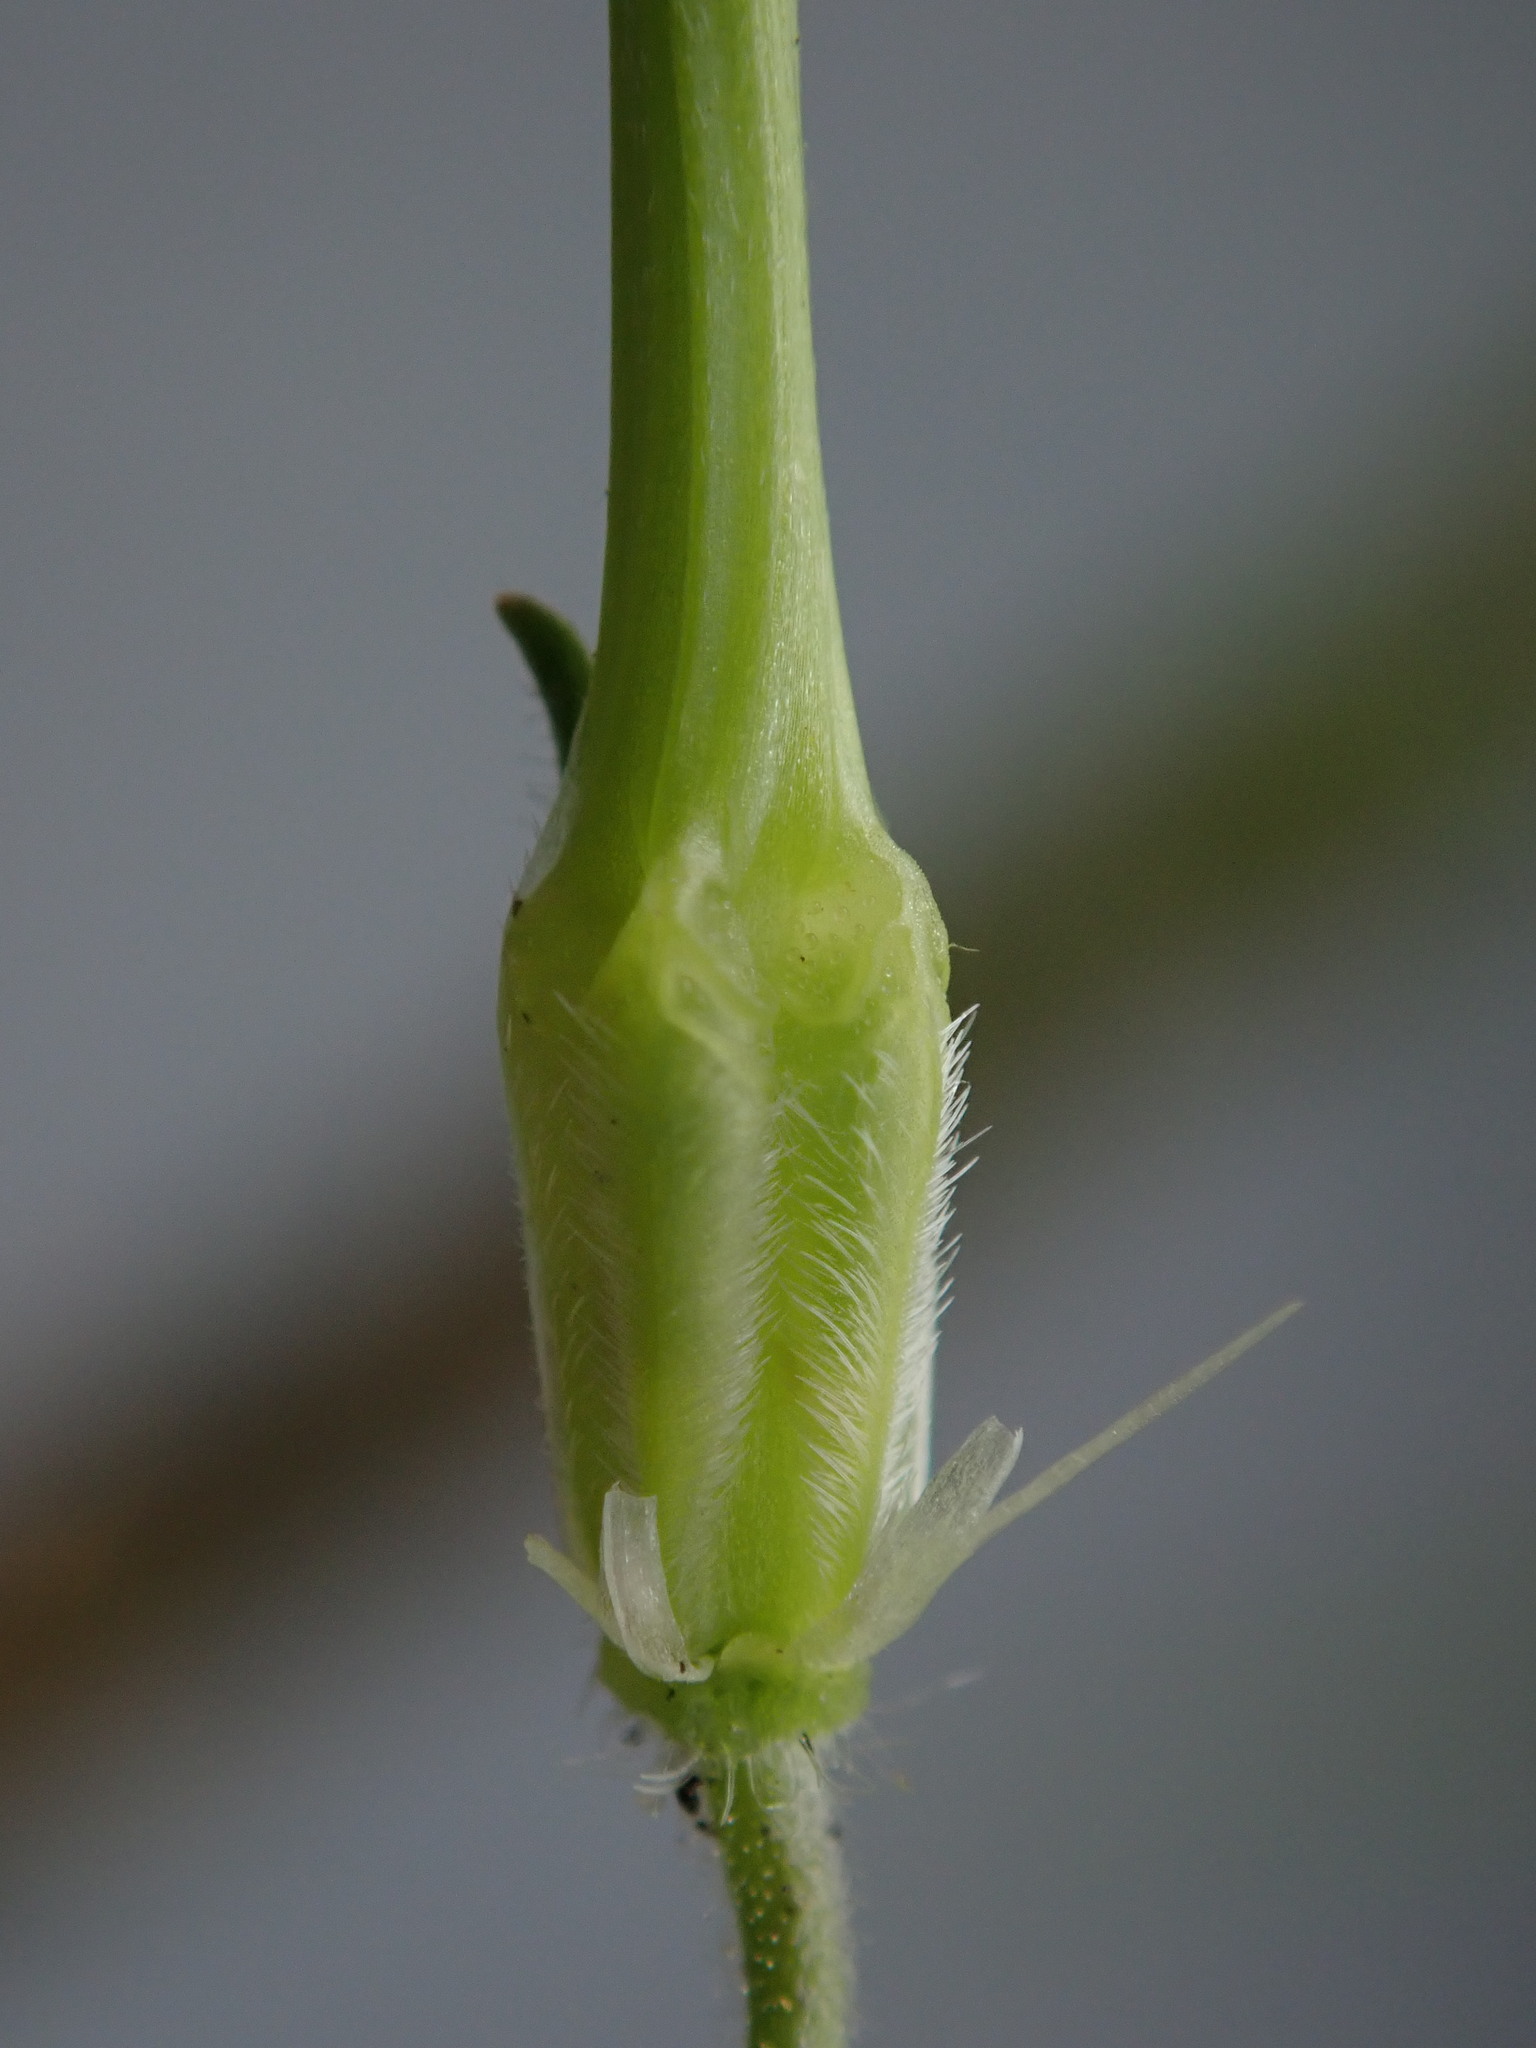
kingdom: Plantae
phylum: Tracheophyta
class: Magnoliopsida
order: Geraniales
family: Geraniaceae
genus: Erodium
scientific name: Erodium moschatum
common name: Musk stork's-bill
